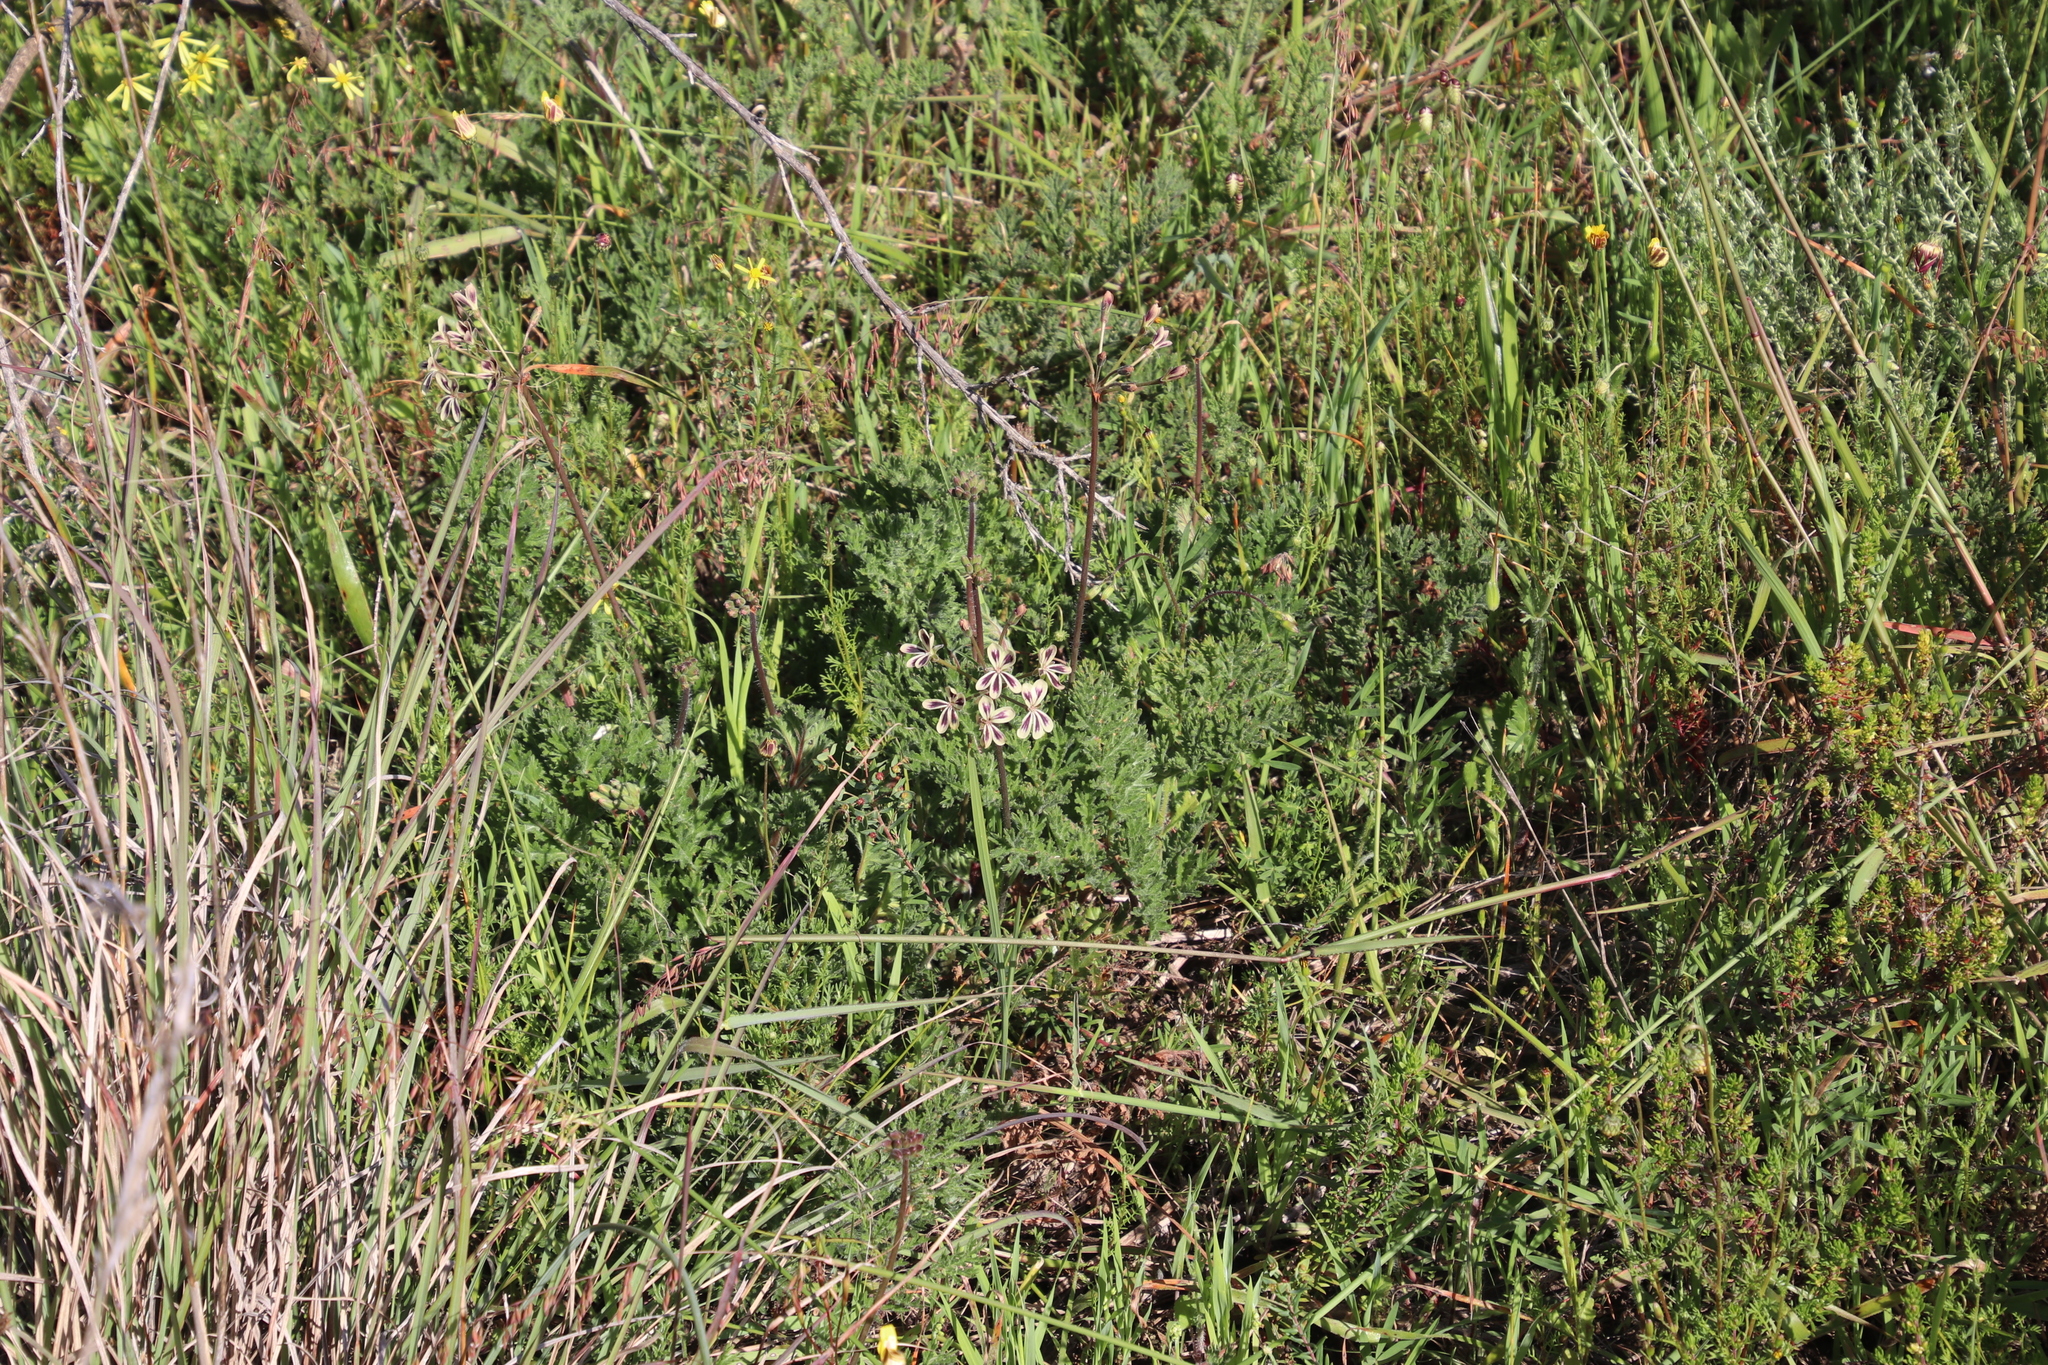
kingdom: Plantae
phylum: Tracheophyta
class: Magnoliopsida
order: Geraniales
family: Geraniaceae
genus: Pelargonium
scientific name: Pelargonium triste
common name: Night-scent pelargonium
